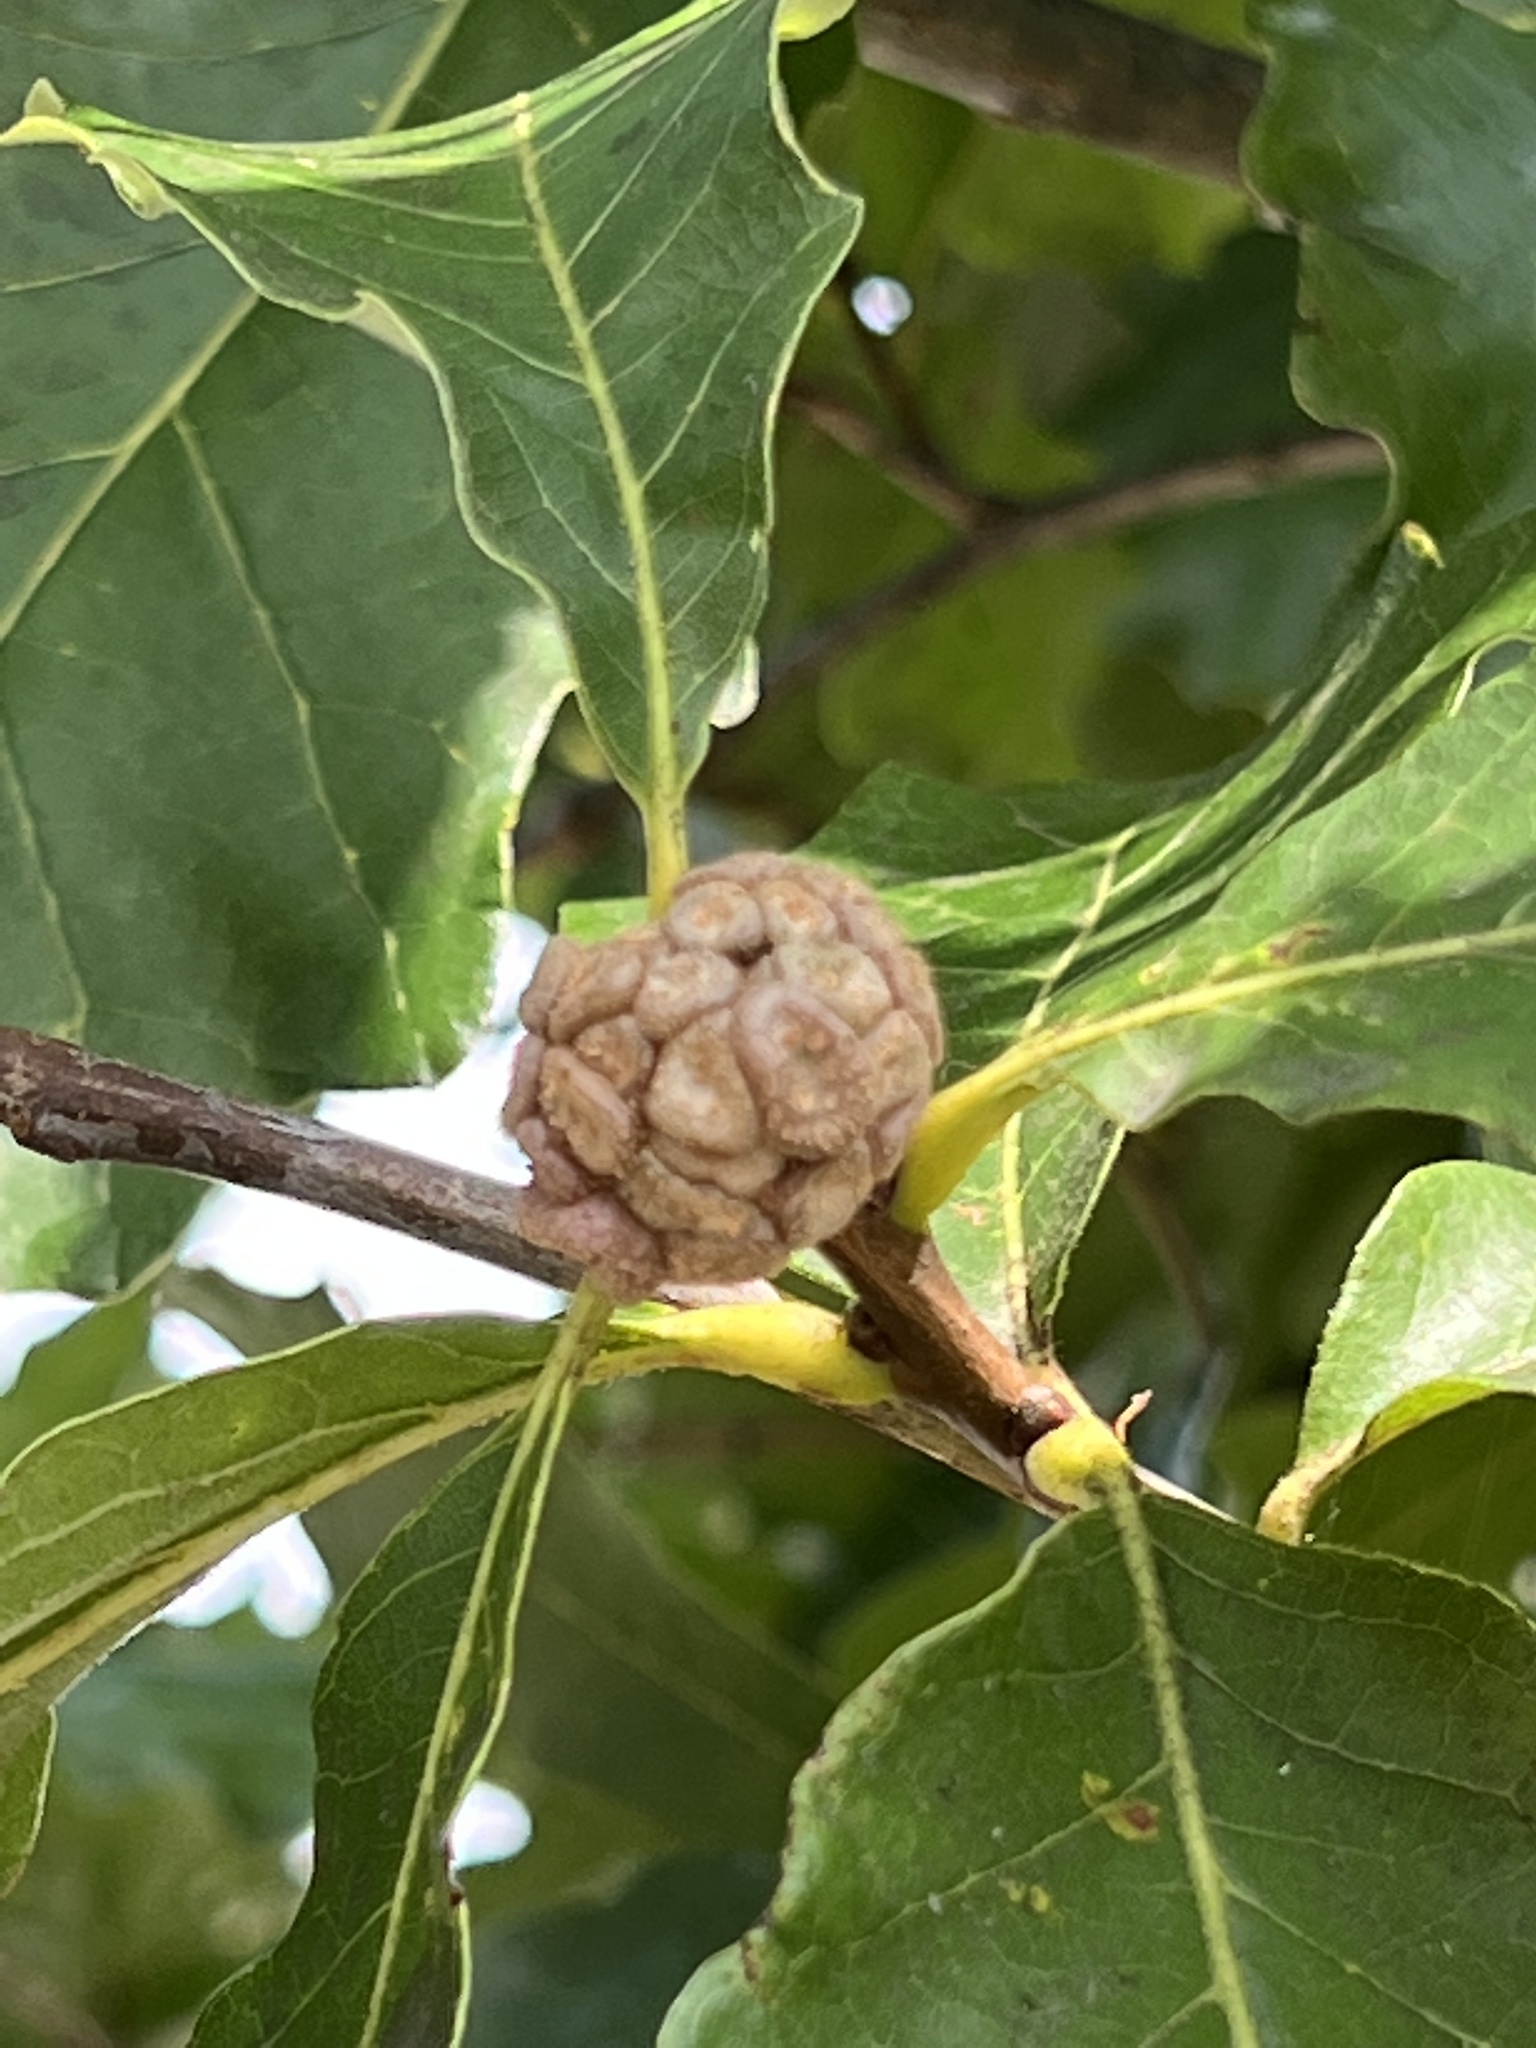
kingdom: Animalia
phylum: Arthropoda
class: Insecta
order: Hymenoptera
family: Cynipidae
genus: Andricus
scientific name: Andricus
